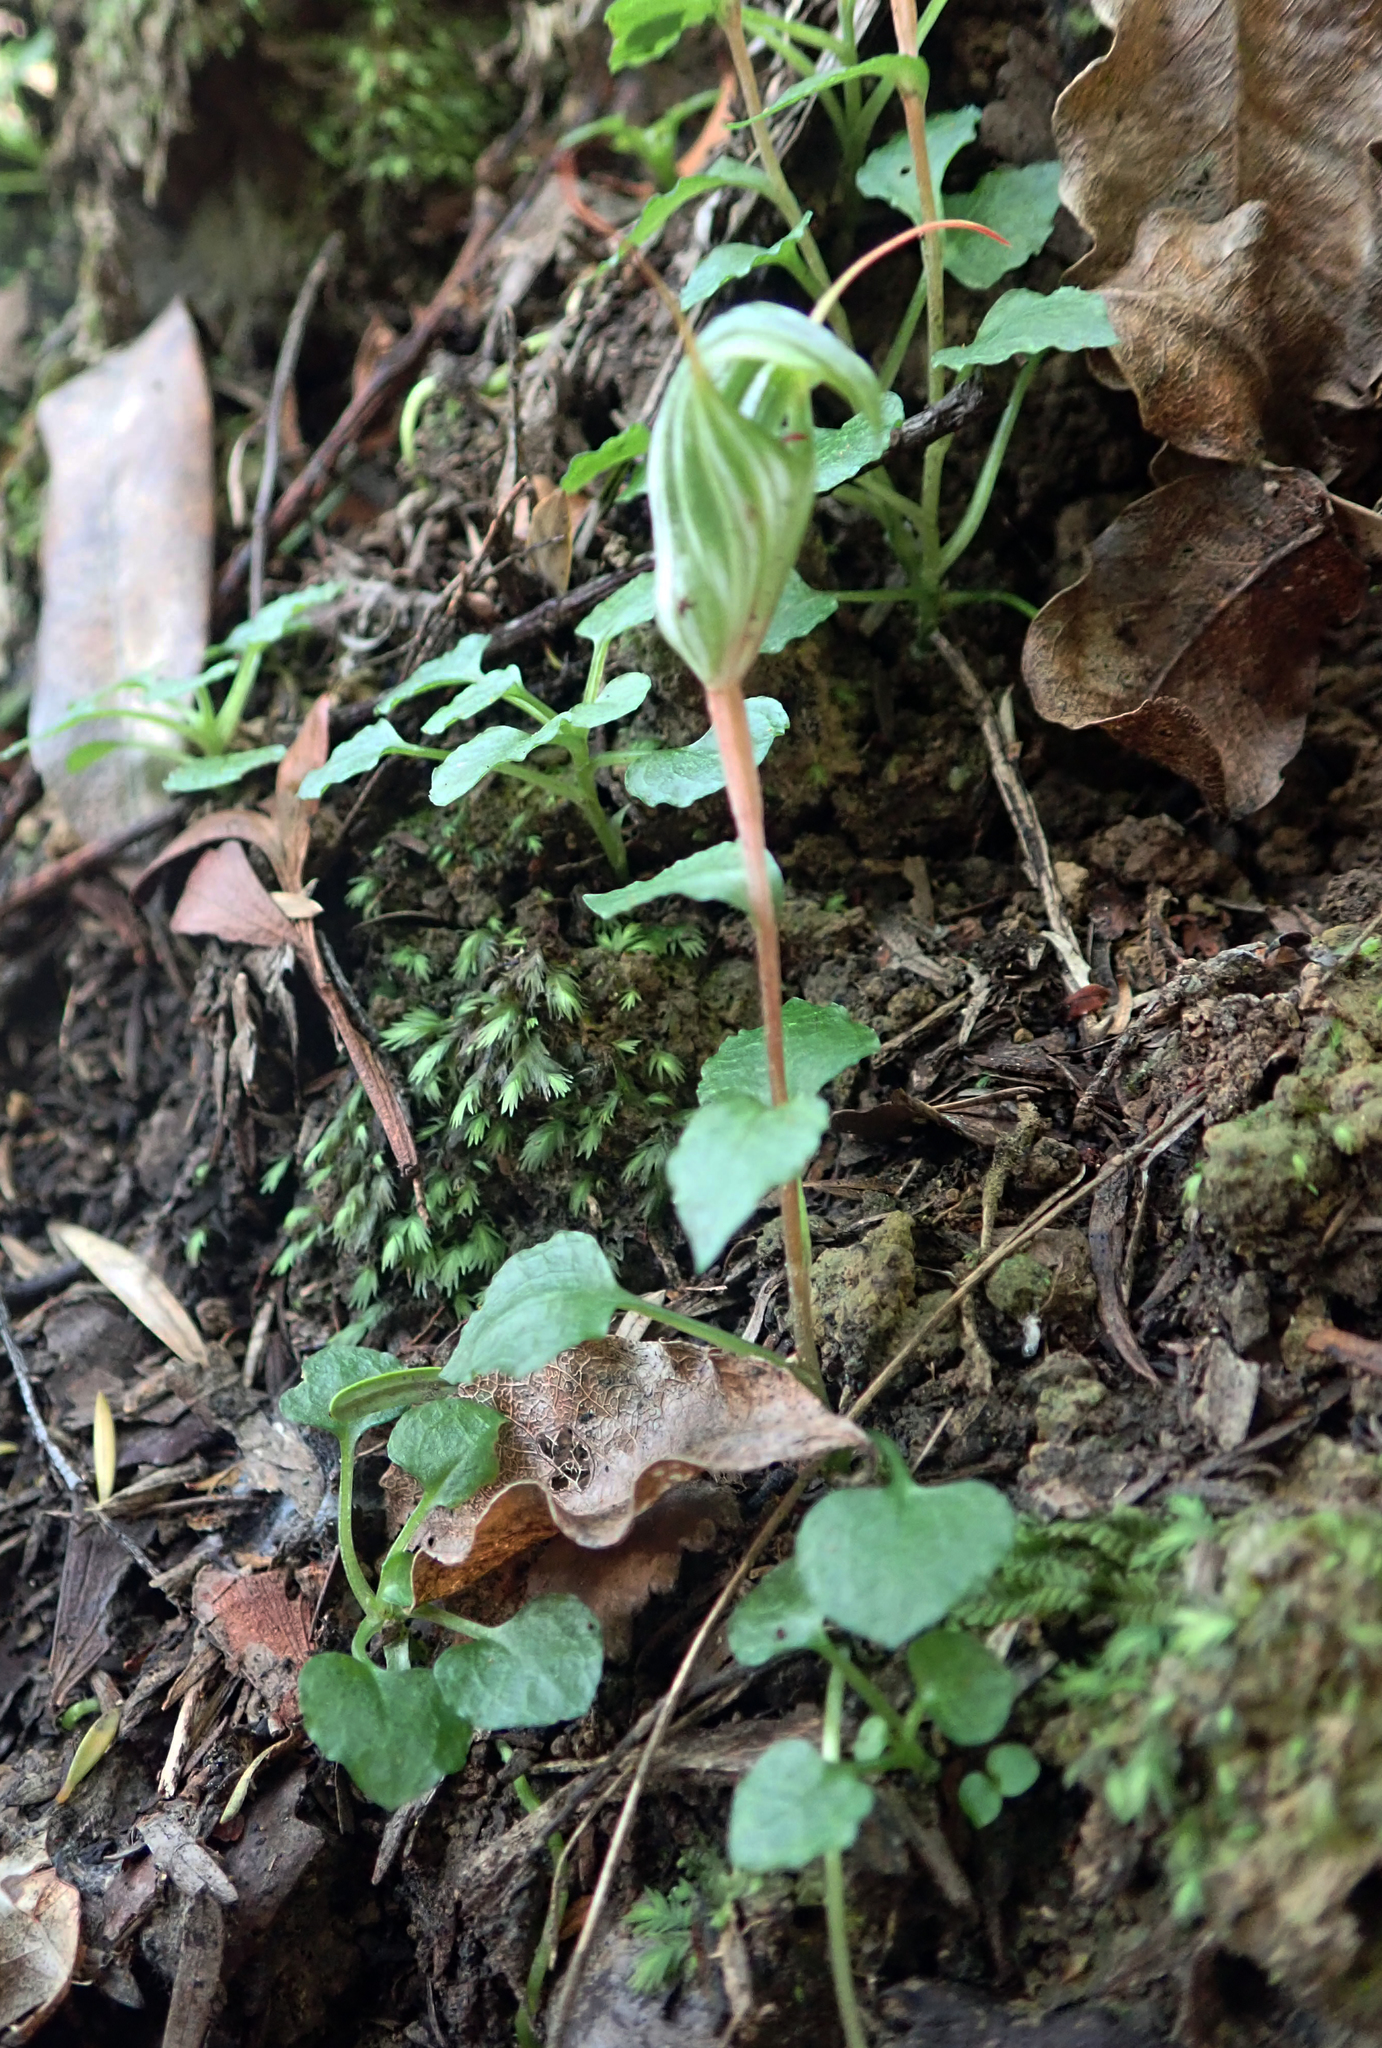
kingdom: Plantae
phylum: Tracheophyta
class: Liliopsida
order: Asparagales
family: Orchidaceae
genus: Pterostylis
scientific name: Pterostylis alobula
